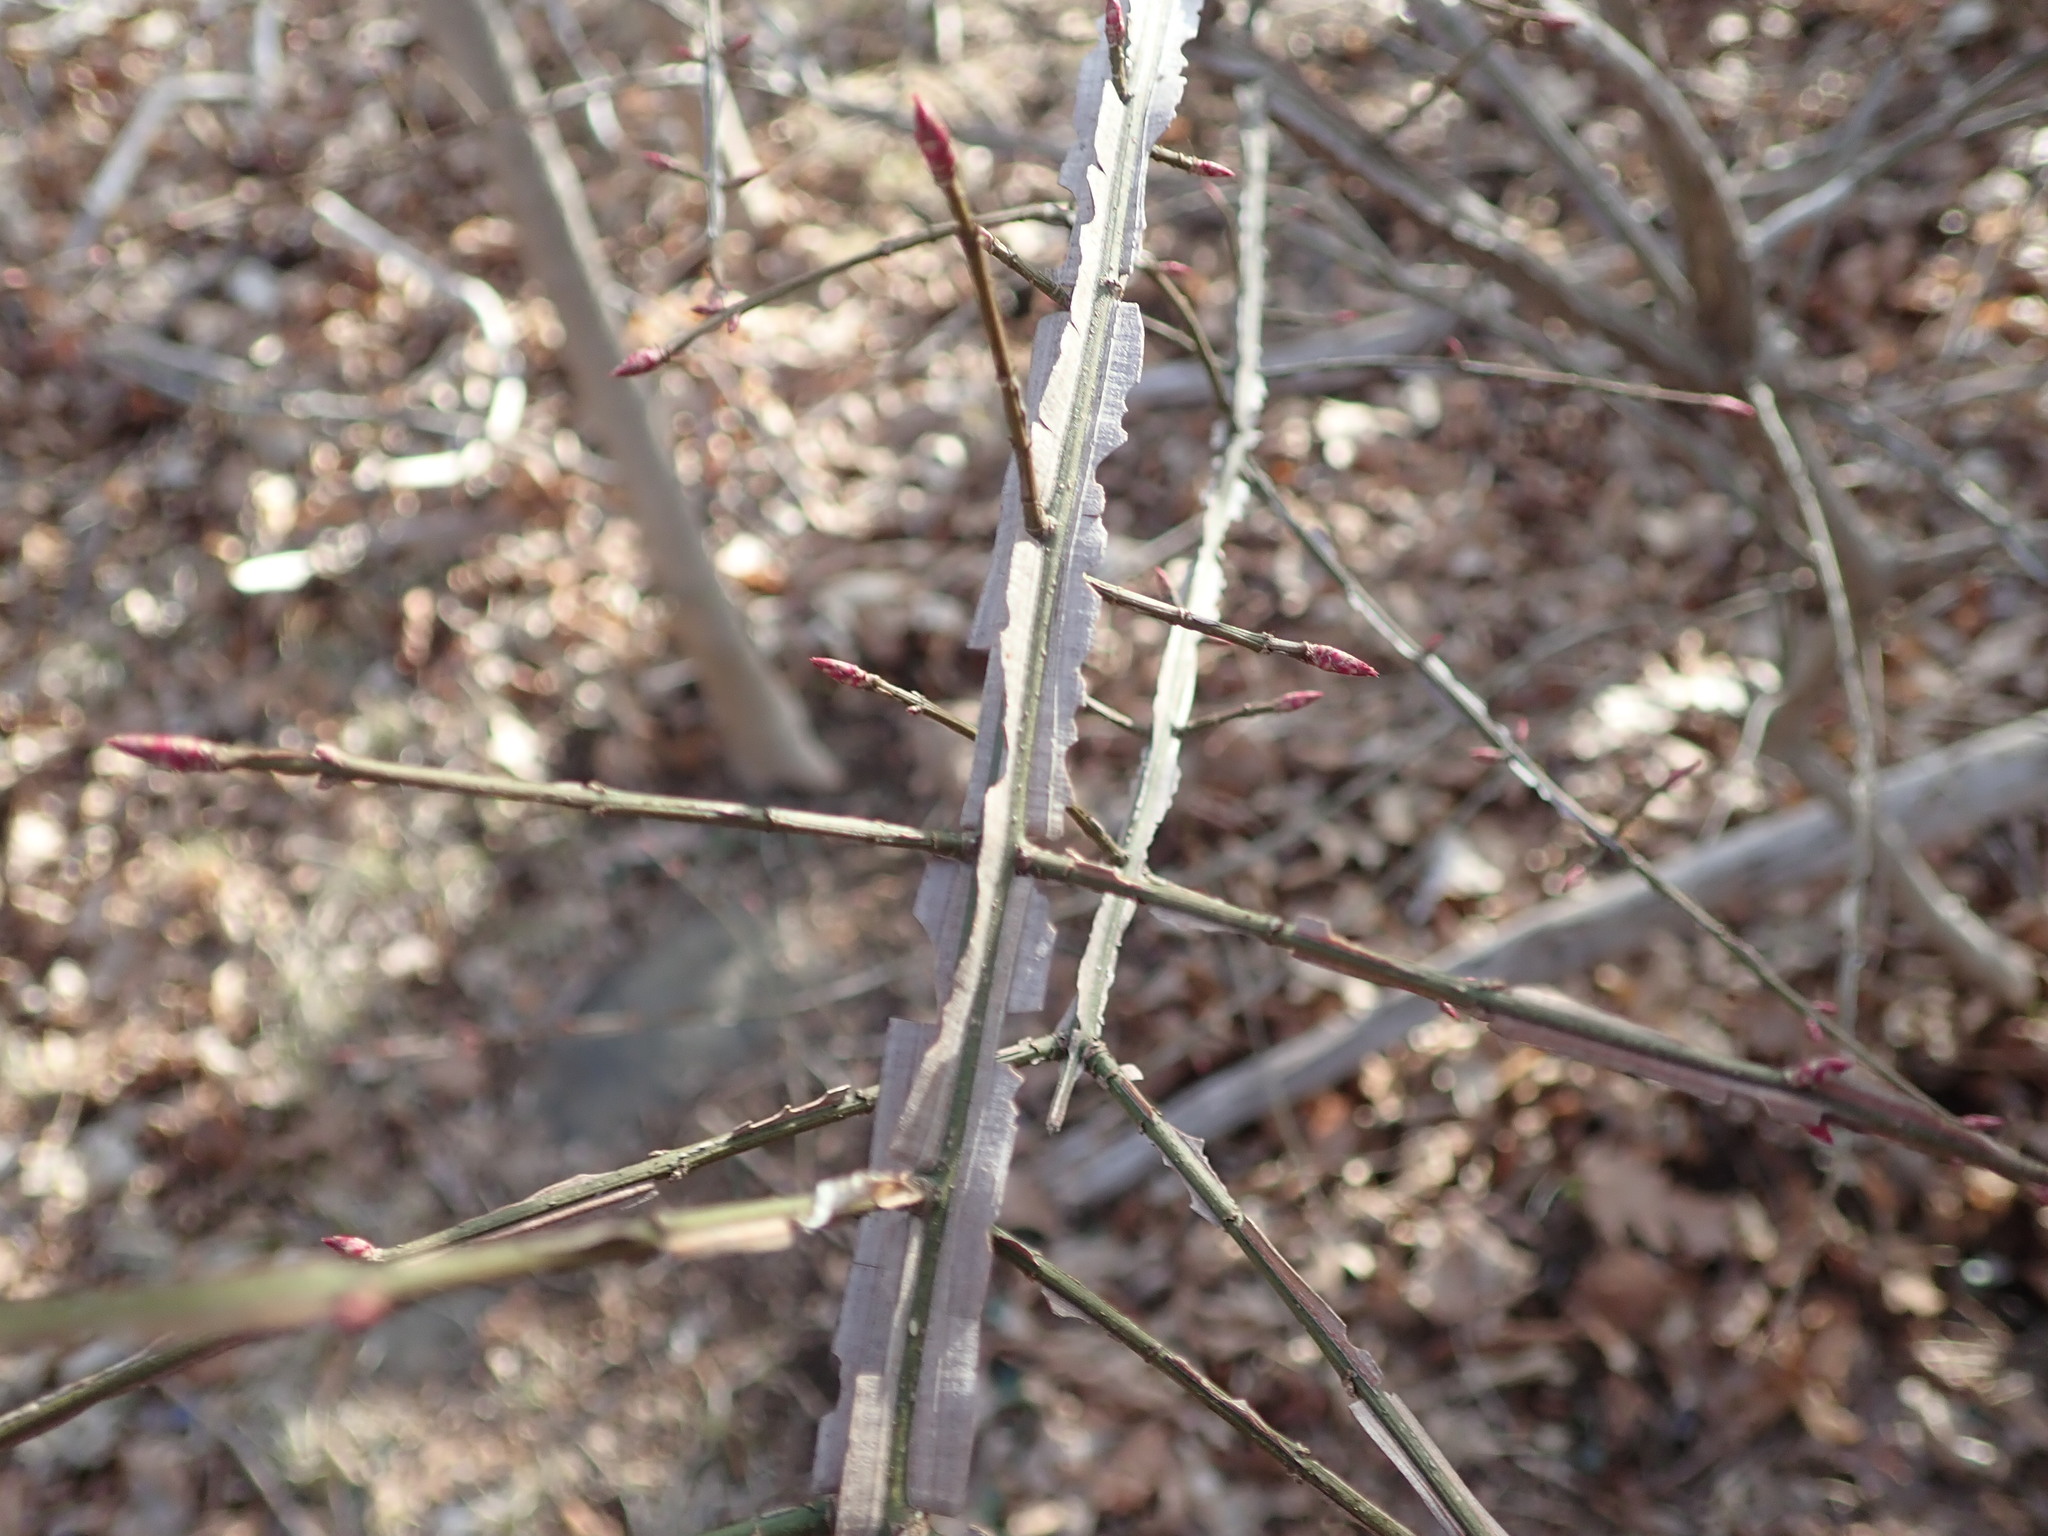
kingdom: Plantae
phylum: Tracheophyta
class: Magnoliopsida
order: Celastrales
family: Celastraceae
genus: Euonymus
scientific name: Euonymus alatus
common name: Winged euonymus
